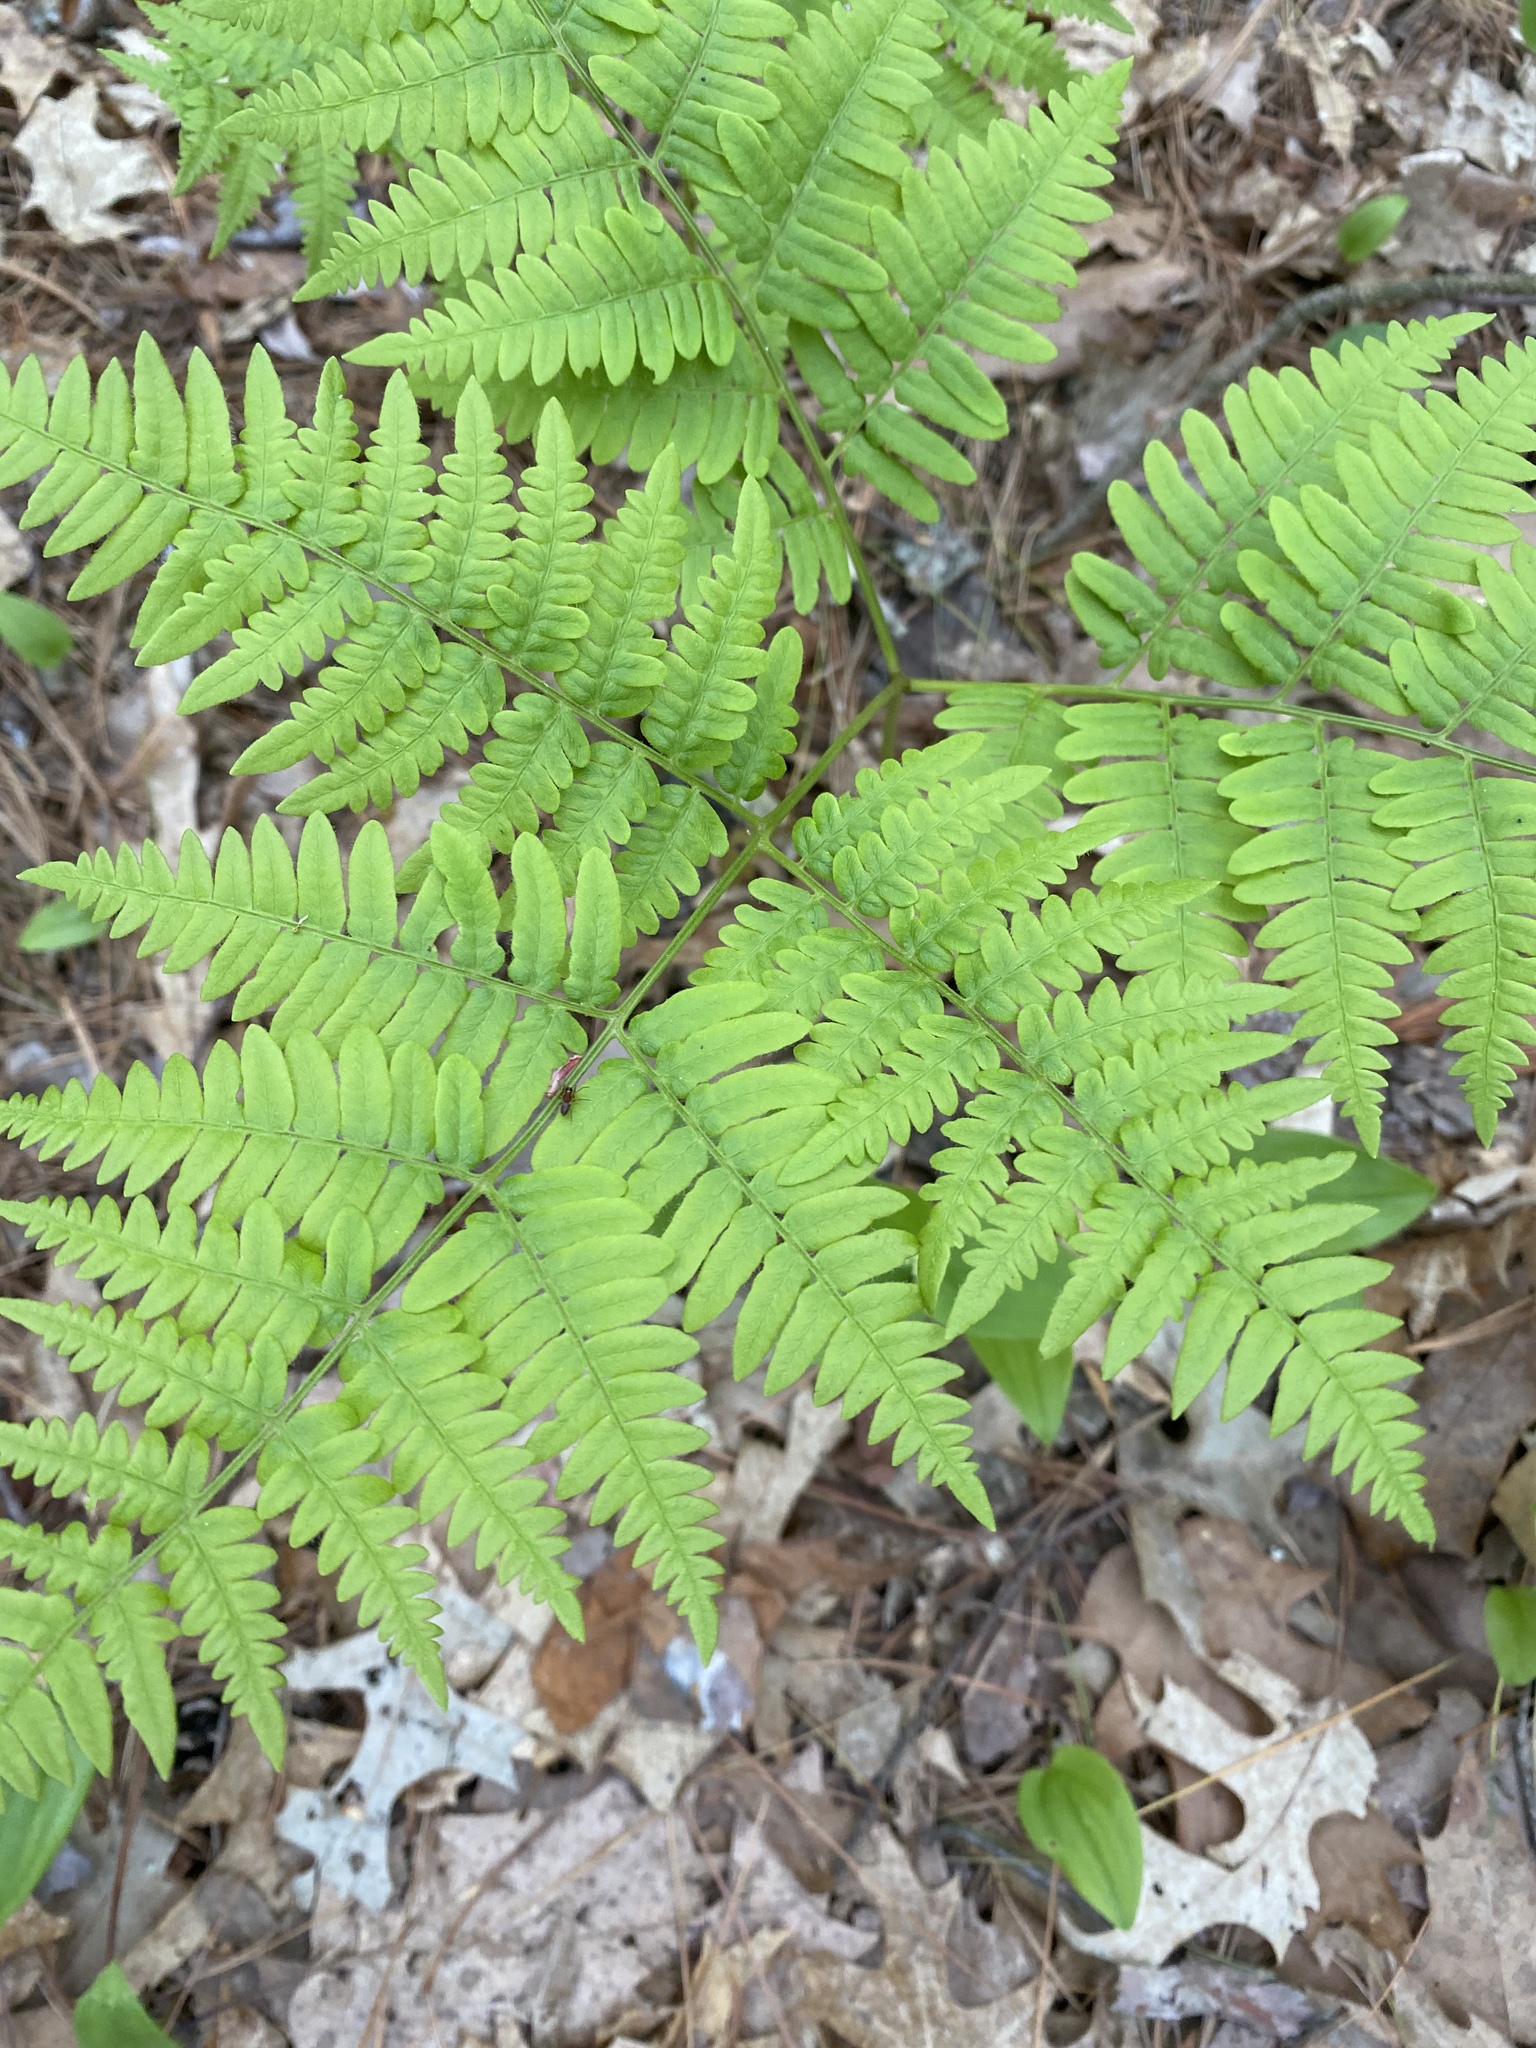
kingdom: Plantae
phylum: Tracheophyta
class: Polypodiopsida
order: Polypodiales
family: Dennstaedtiaceae
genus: Pteridium
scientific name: Pteridium aquilinum
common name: Bracken
